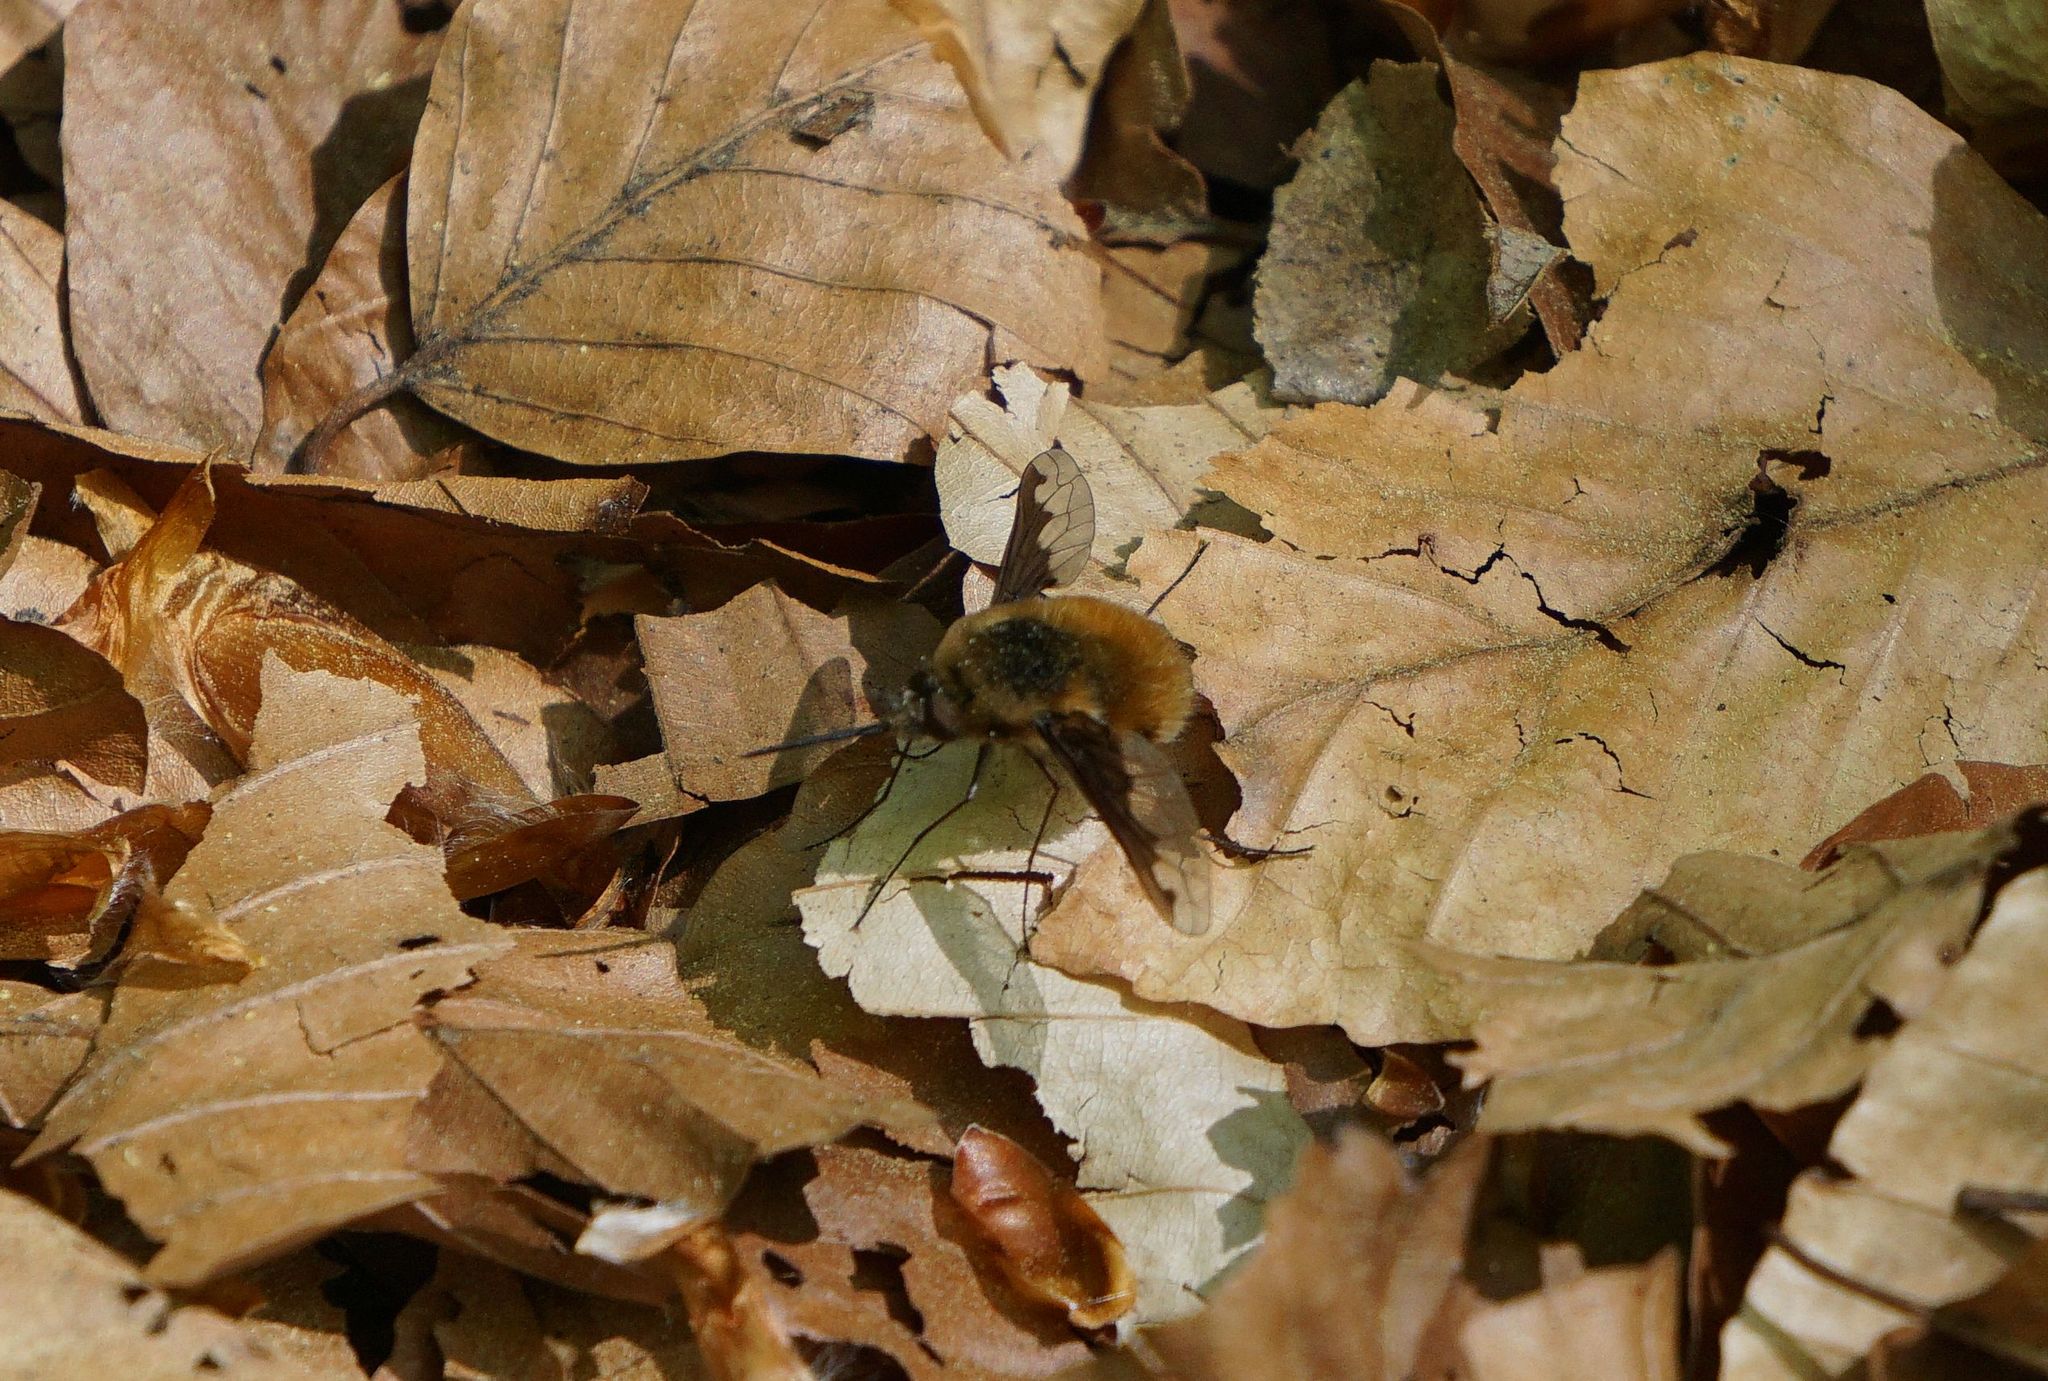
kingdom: Animalia
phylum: Arthropoda
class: Insecta
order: Diptera
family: Bombyliidae
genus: Bombylius
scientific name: Bombylius major
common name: Bee fly
